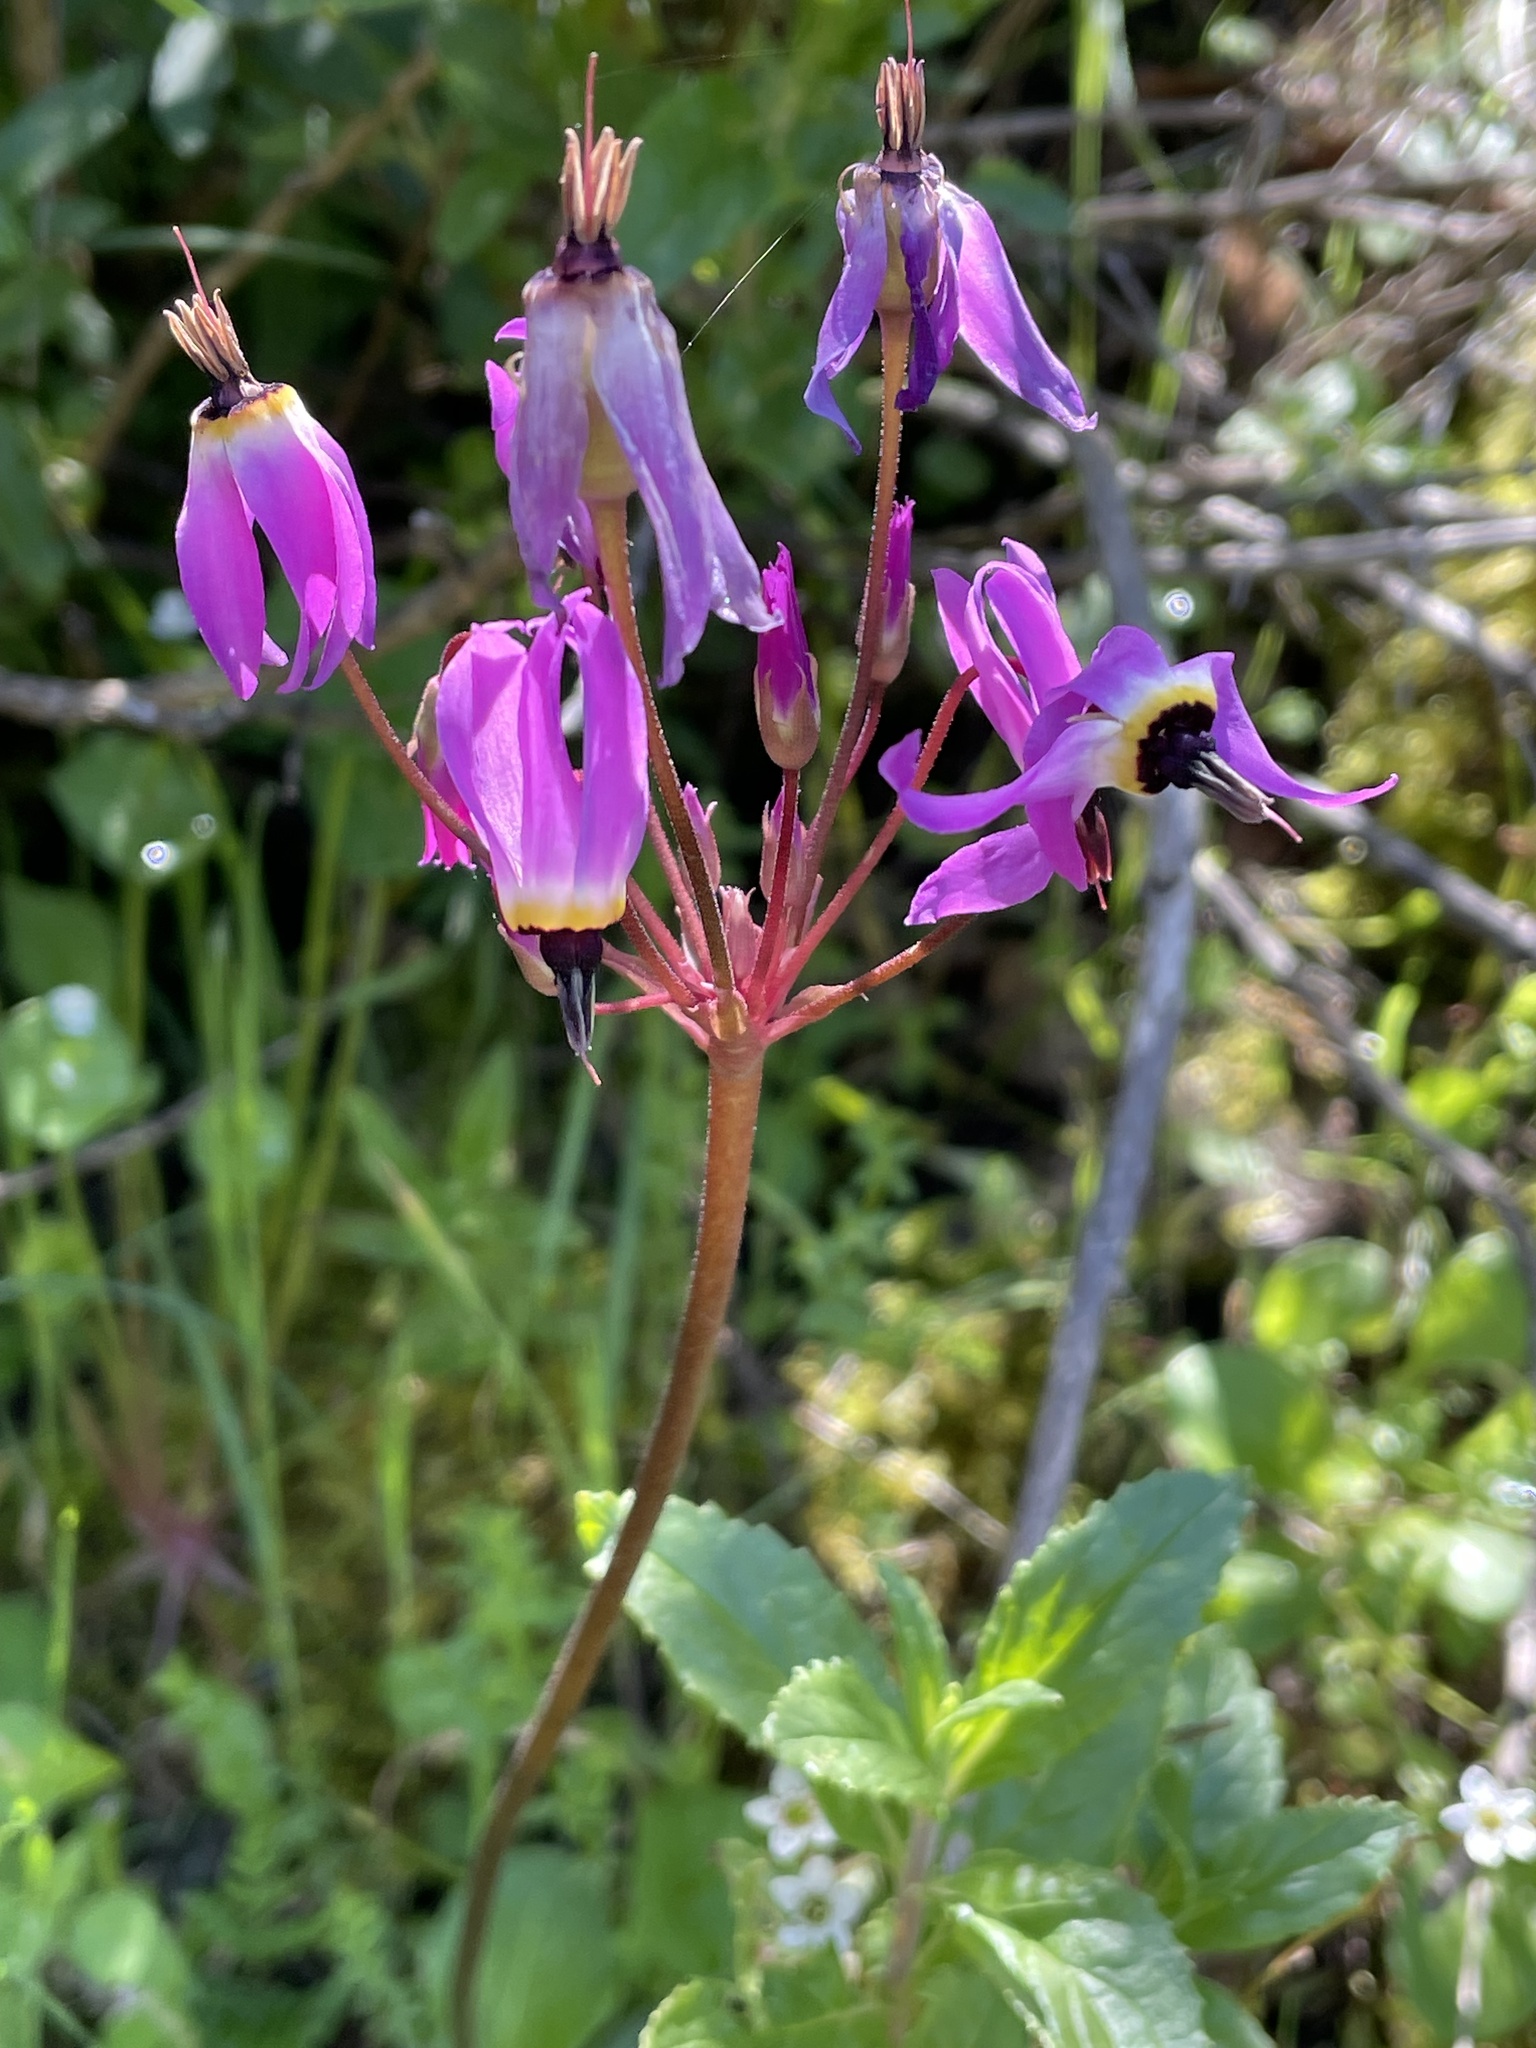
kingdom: Plantae
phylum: Tracheophyta
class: Magnoliopsida
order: Ericales
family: Primulaceae
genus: Dodecatheon
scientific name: Dodecatheon hendersonii
